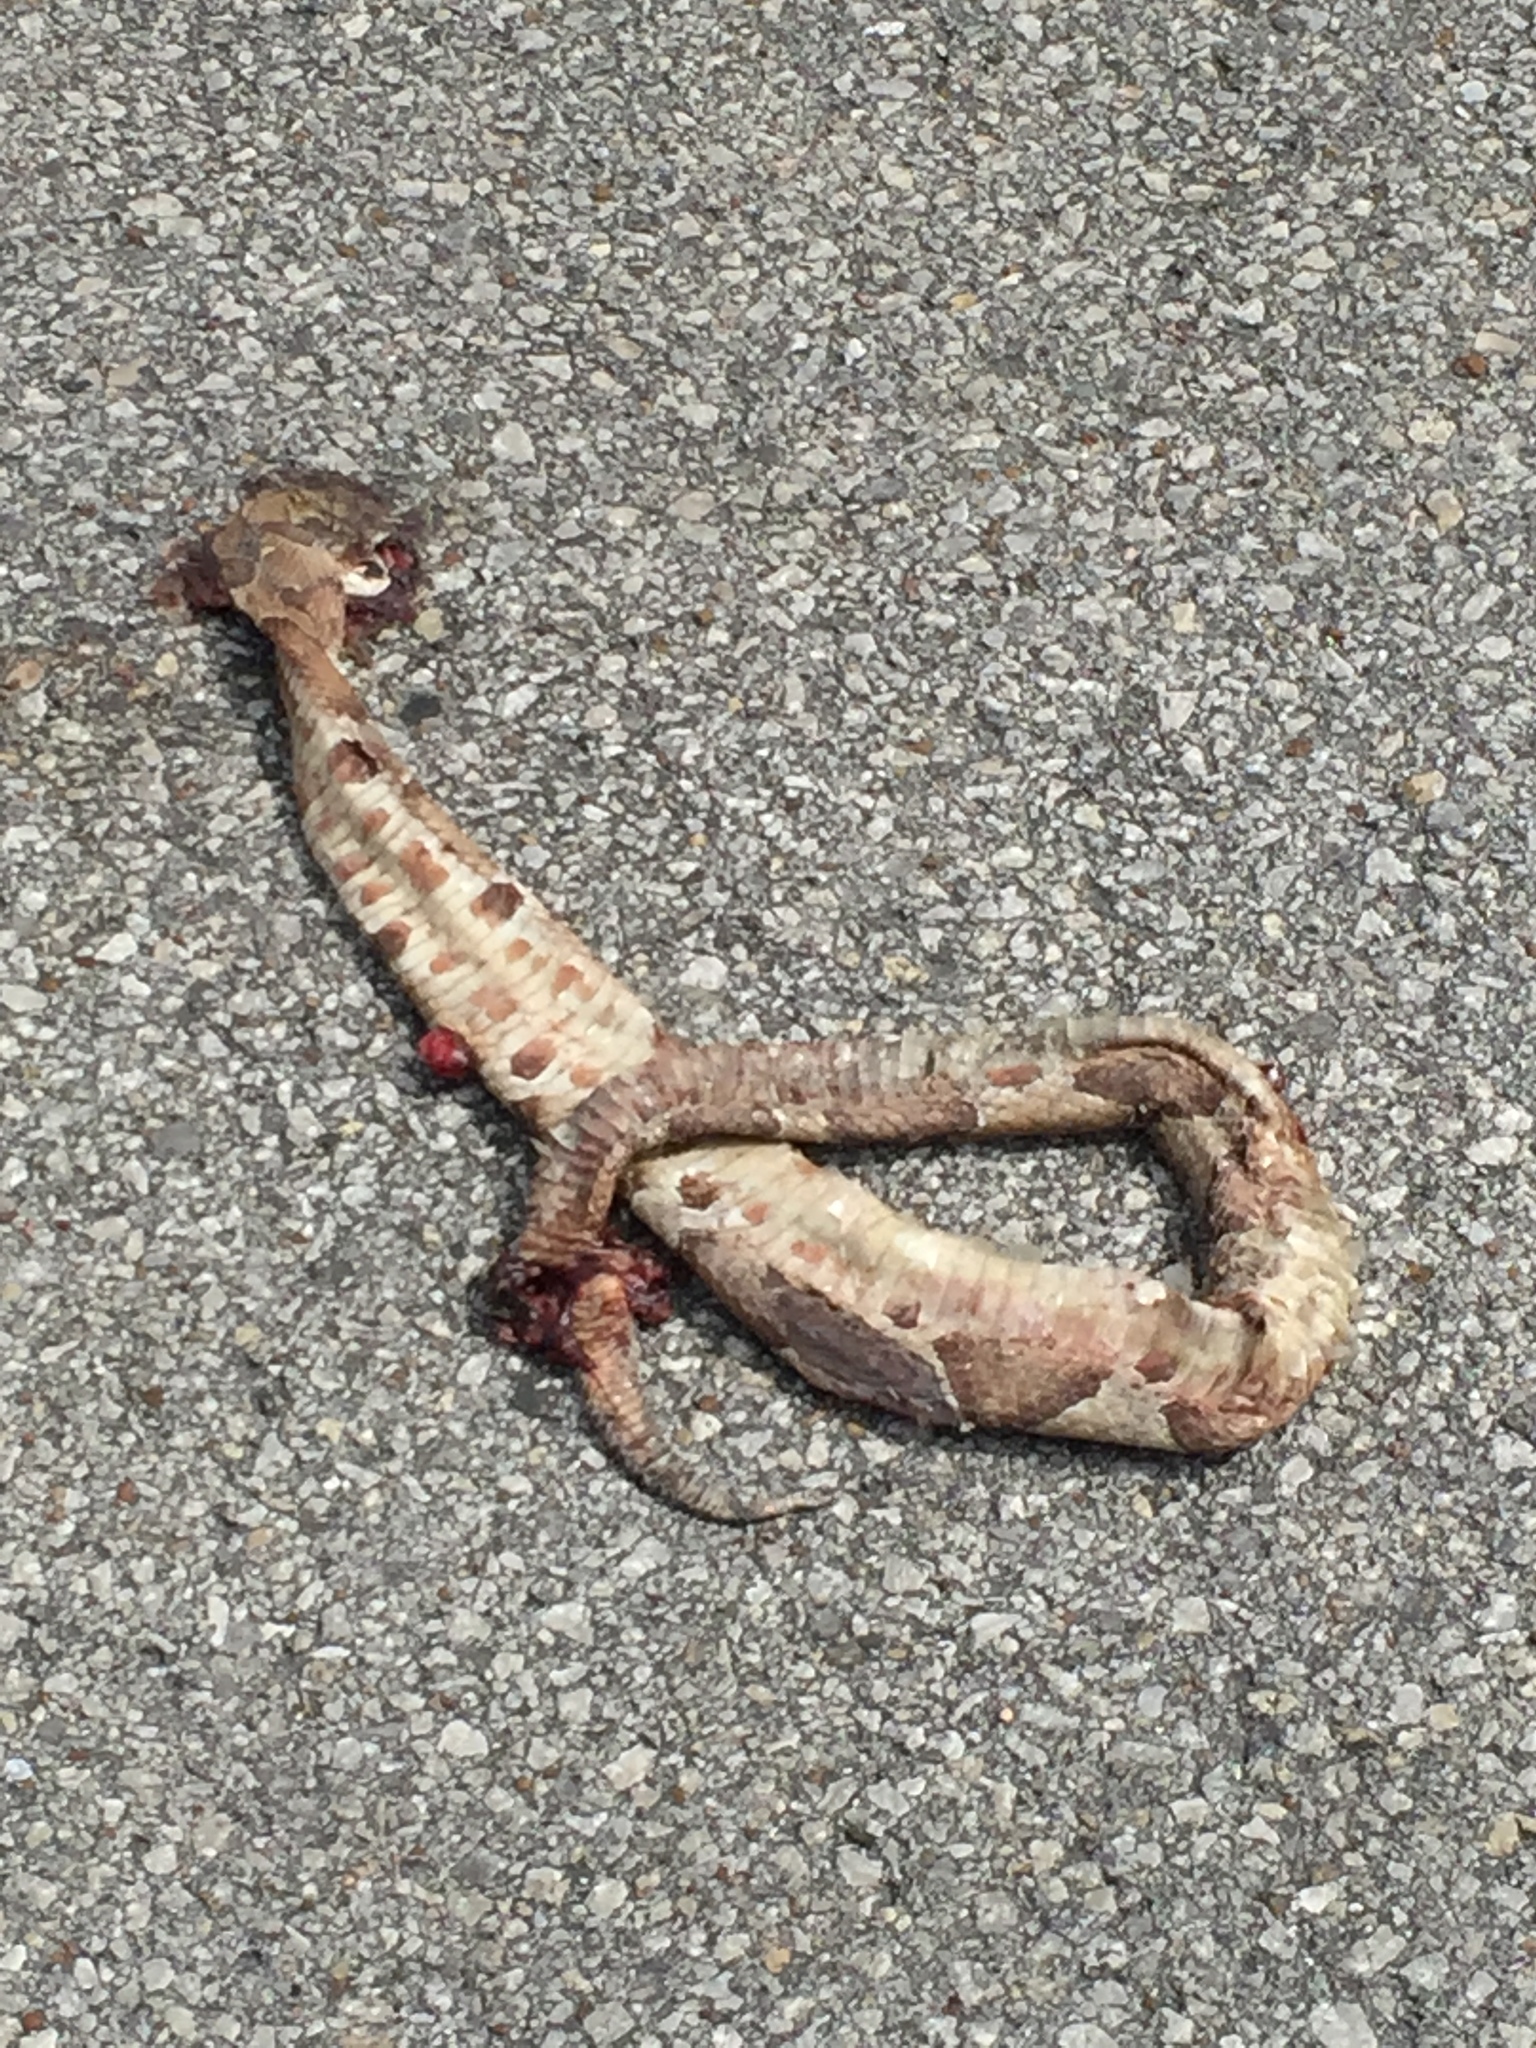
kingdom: Animalia
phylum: Chordata
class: Squamata
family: Viperidae
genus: Agkistrodon
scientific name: Agkistrodon contortrix
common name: Northern copperhead
